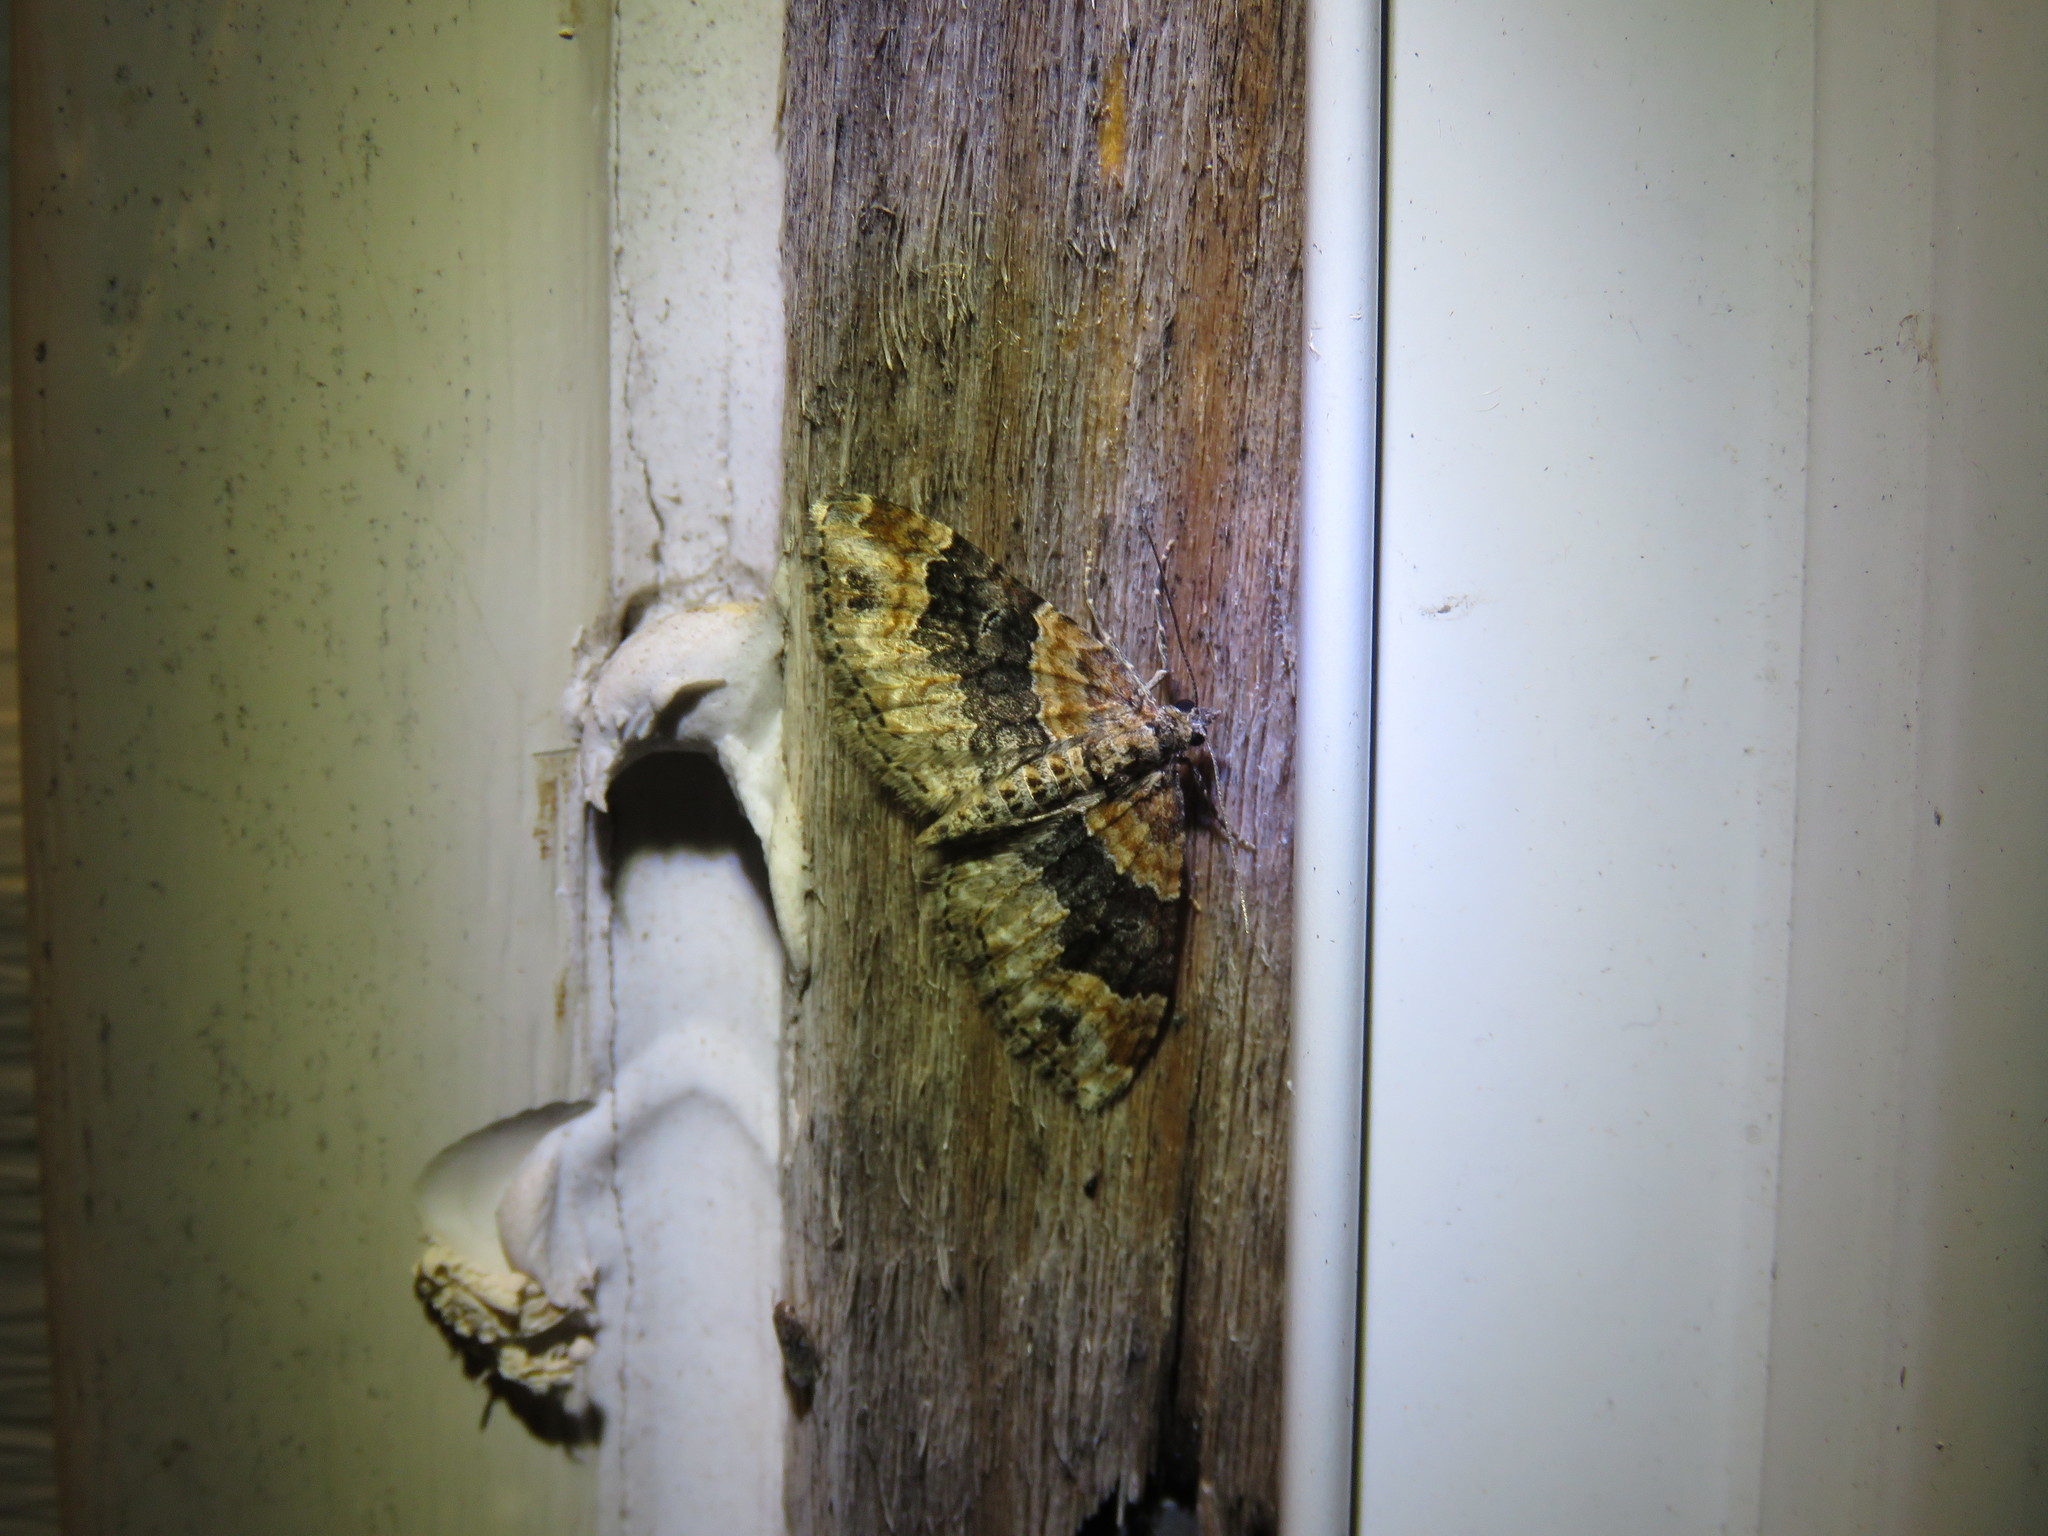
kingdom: Animalia
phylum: Arthropoda
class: Insecta
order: Lepidoptera
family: Geometridae
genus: Xanthorhoe
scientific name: Xanthorhoe ferrugata
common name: Dark-barred twin-spot carpet
